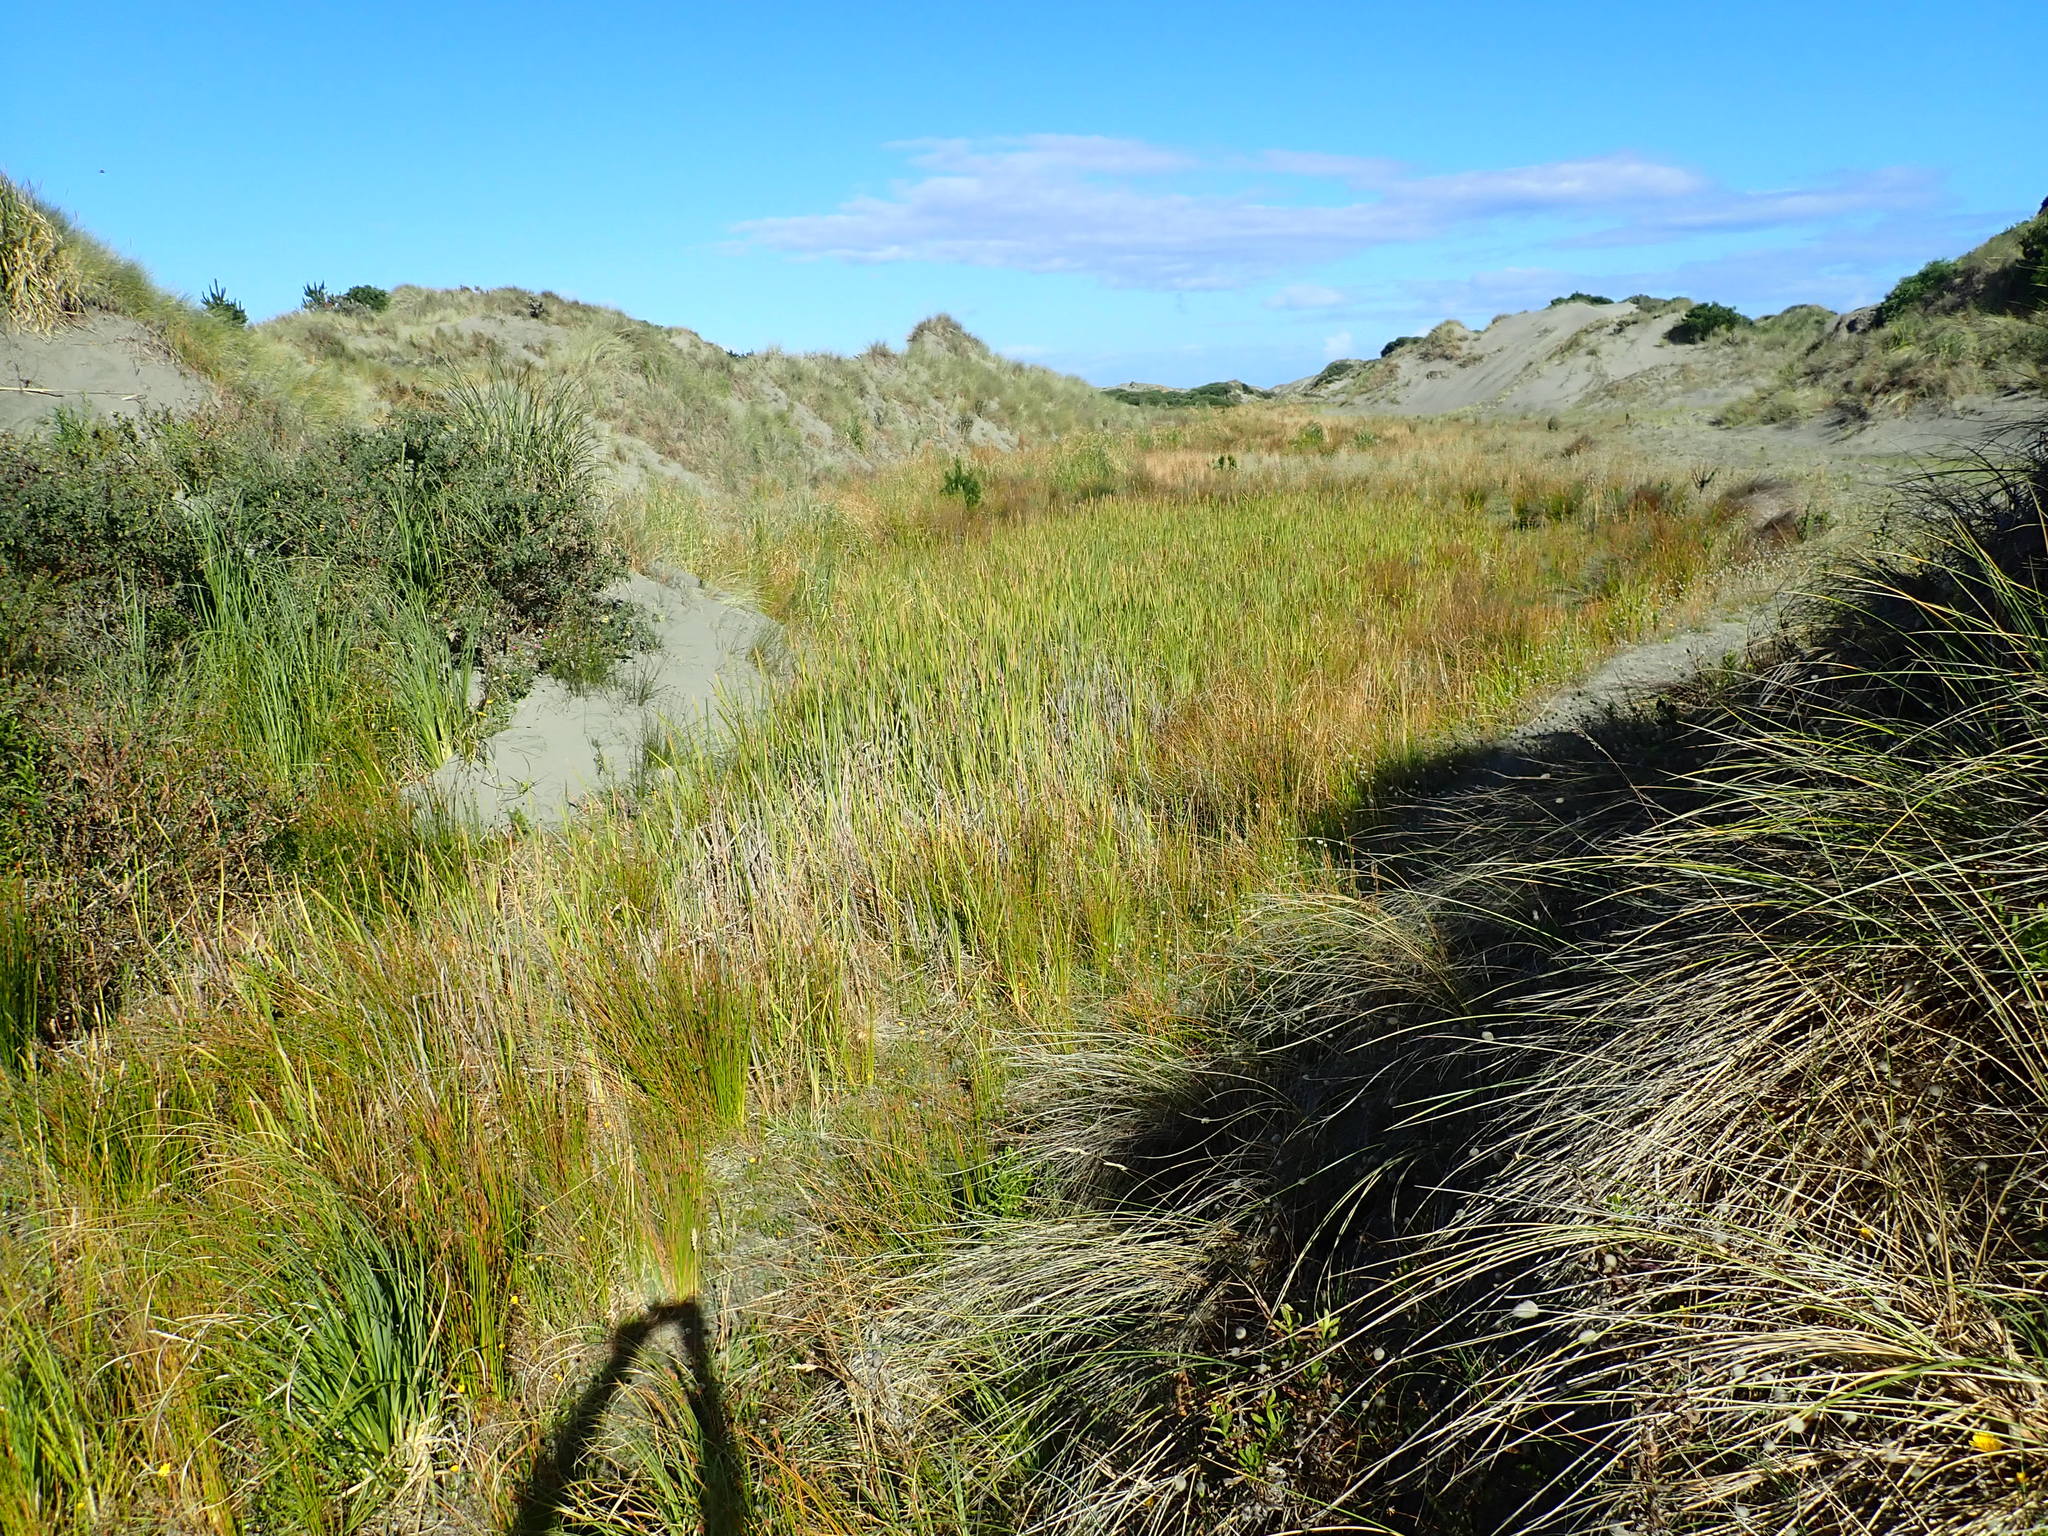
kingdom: Plantae
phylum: Tracheophyta
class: Liliopsida
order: Poales
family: Typhaceae
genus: Typha
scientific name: Typha orientalis
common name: Bullrush
